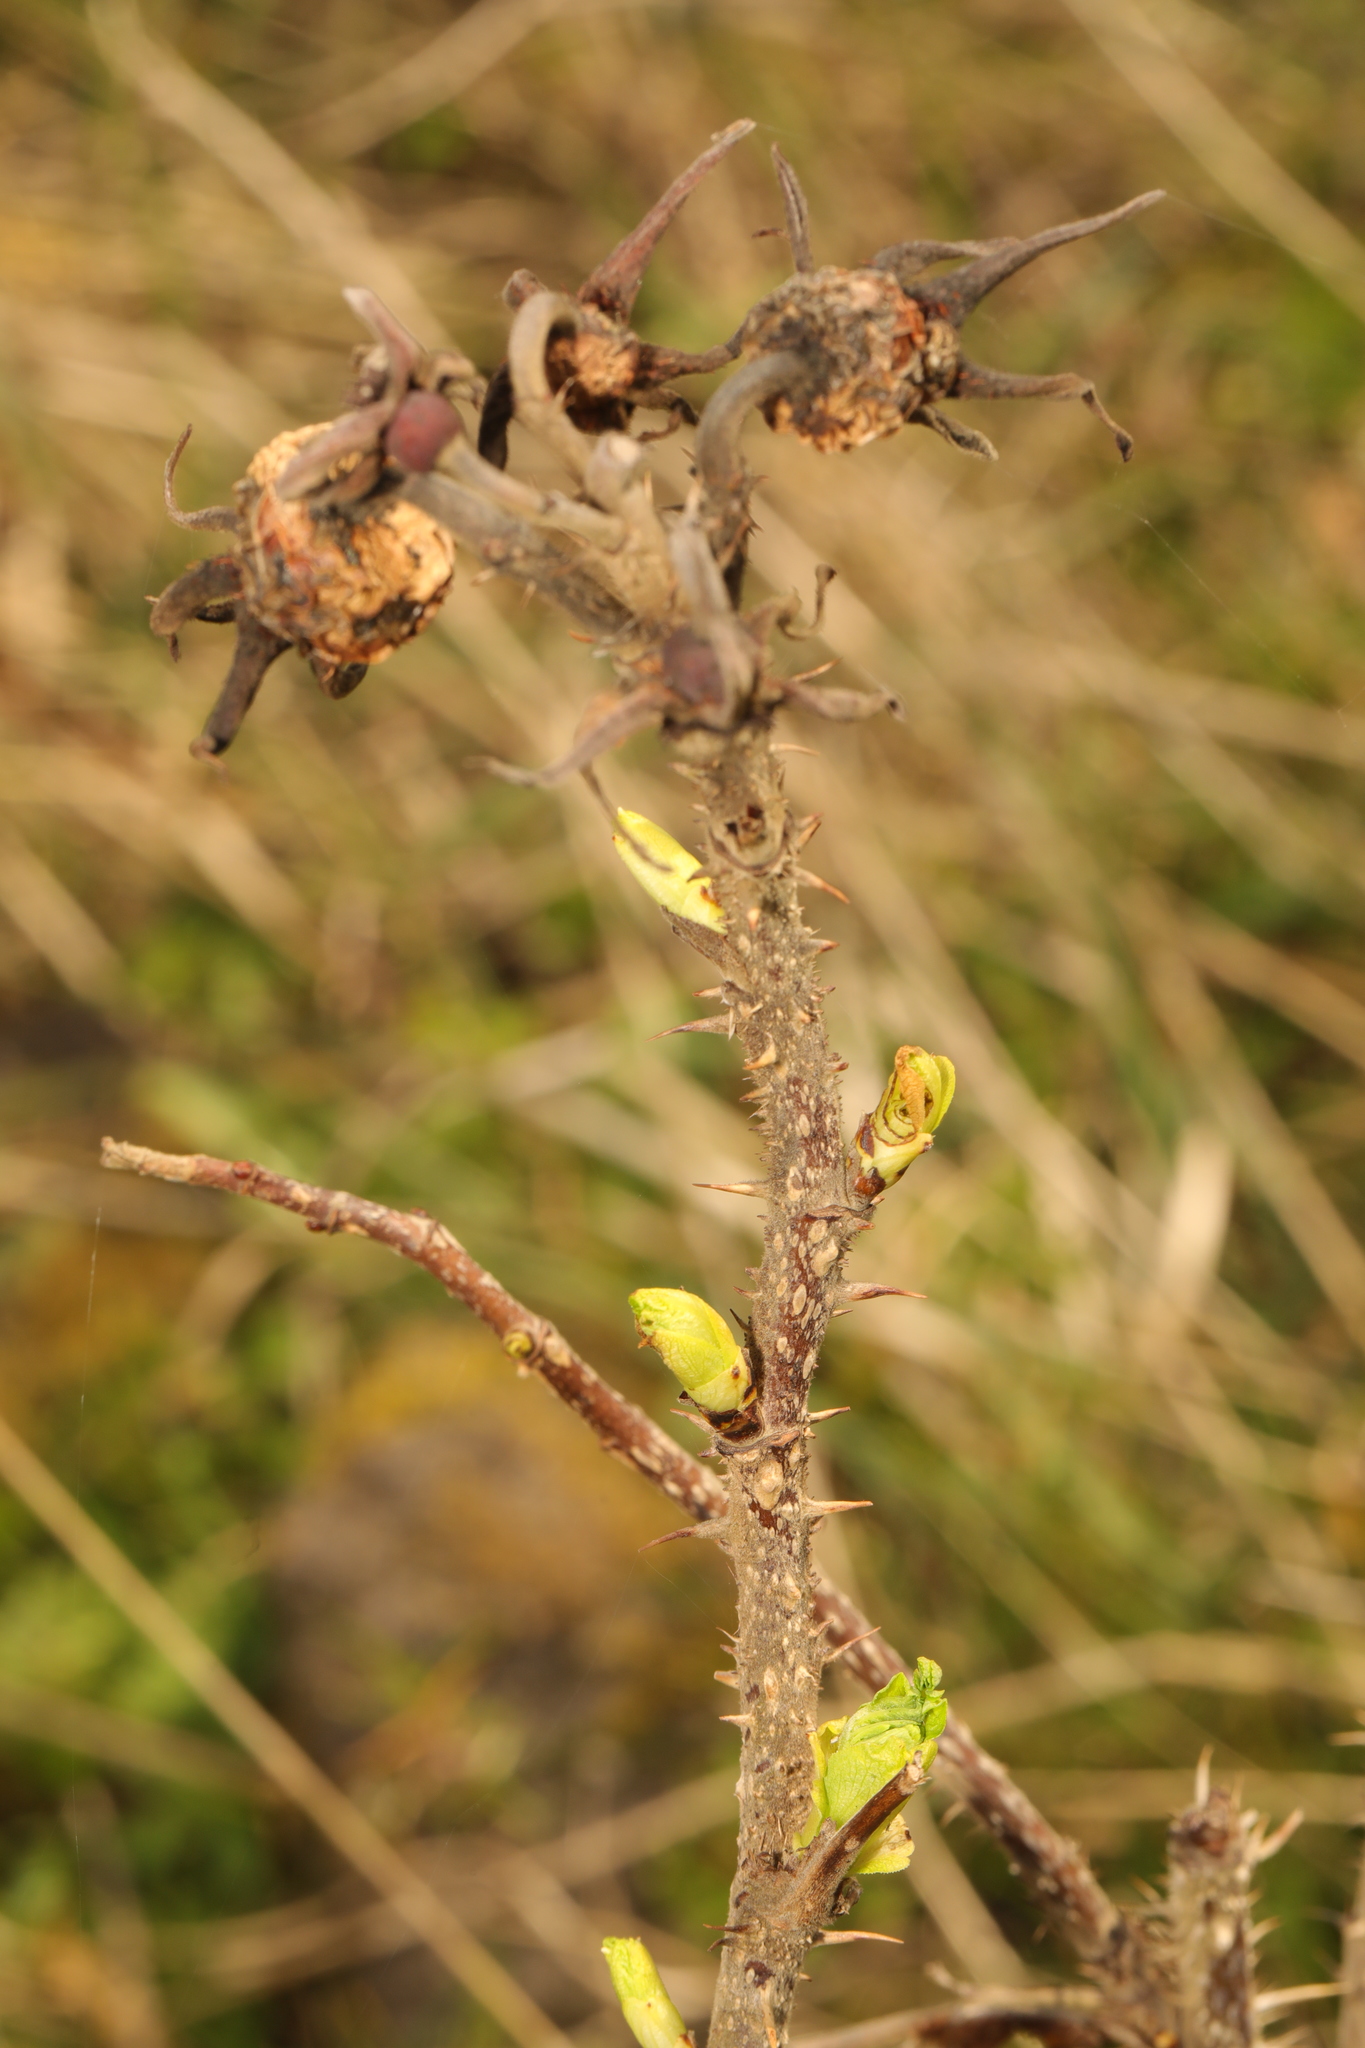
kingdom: Plantae
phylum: Tracheophyta
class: Magnoliopsida
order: Rosales
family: Rosaceae
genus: Rosa
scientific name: Rosa rugosa
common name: Japanese rose
